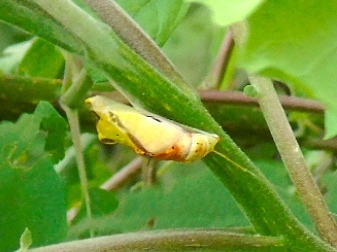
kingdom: Animalia
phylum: Arthropoda
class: Insecta
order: Lepidoptera
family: Nymphalidae
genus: Marpesia
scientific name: Marpesia petreus
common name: Red dagger wing
